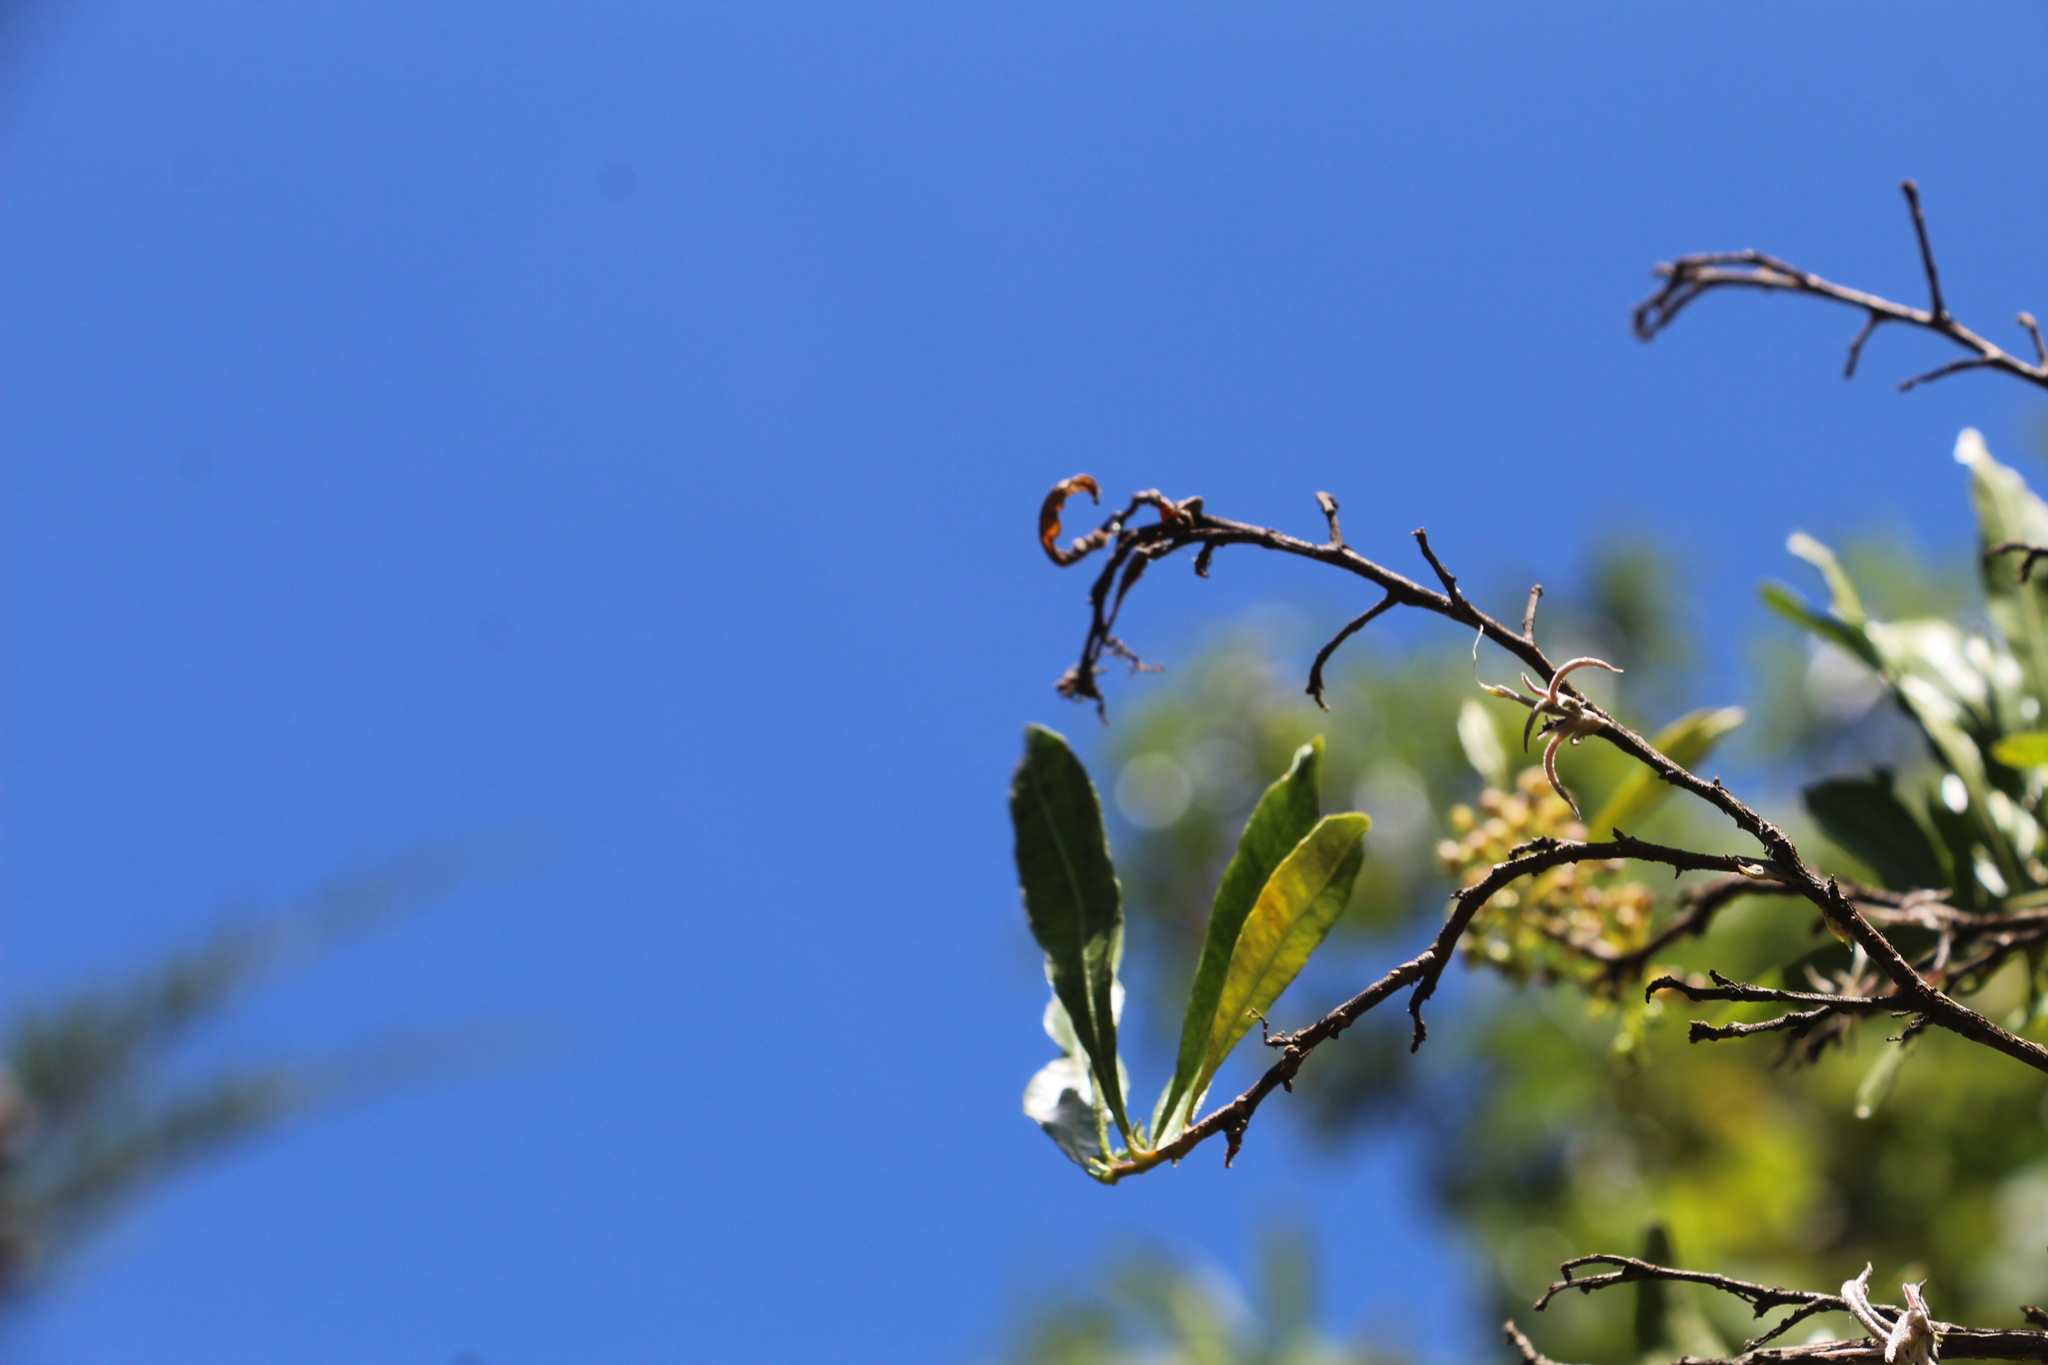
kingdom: Plantae
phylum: Tracheophyta
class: Magnoliopsida
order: Sapindales
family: Sapindaceae
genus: Dodonaea
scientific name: Dodonaea viscosa
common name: Hopbush
